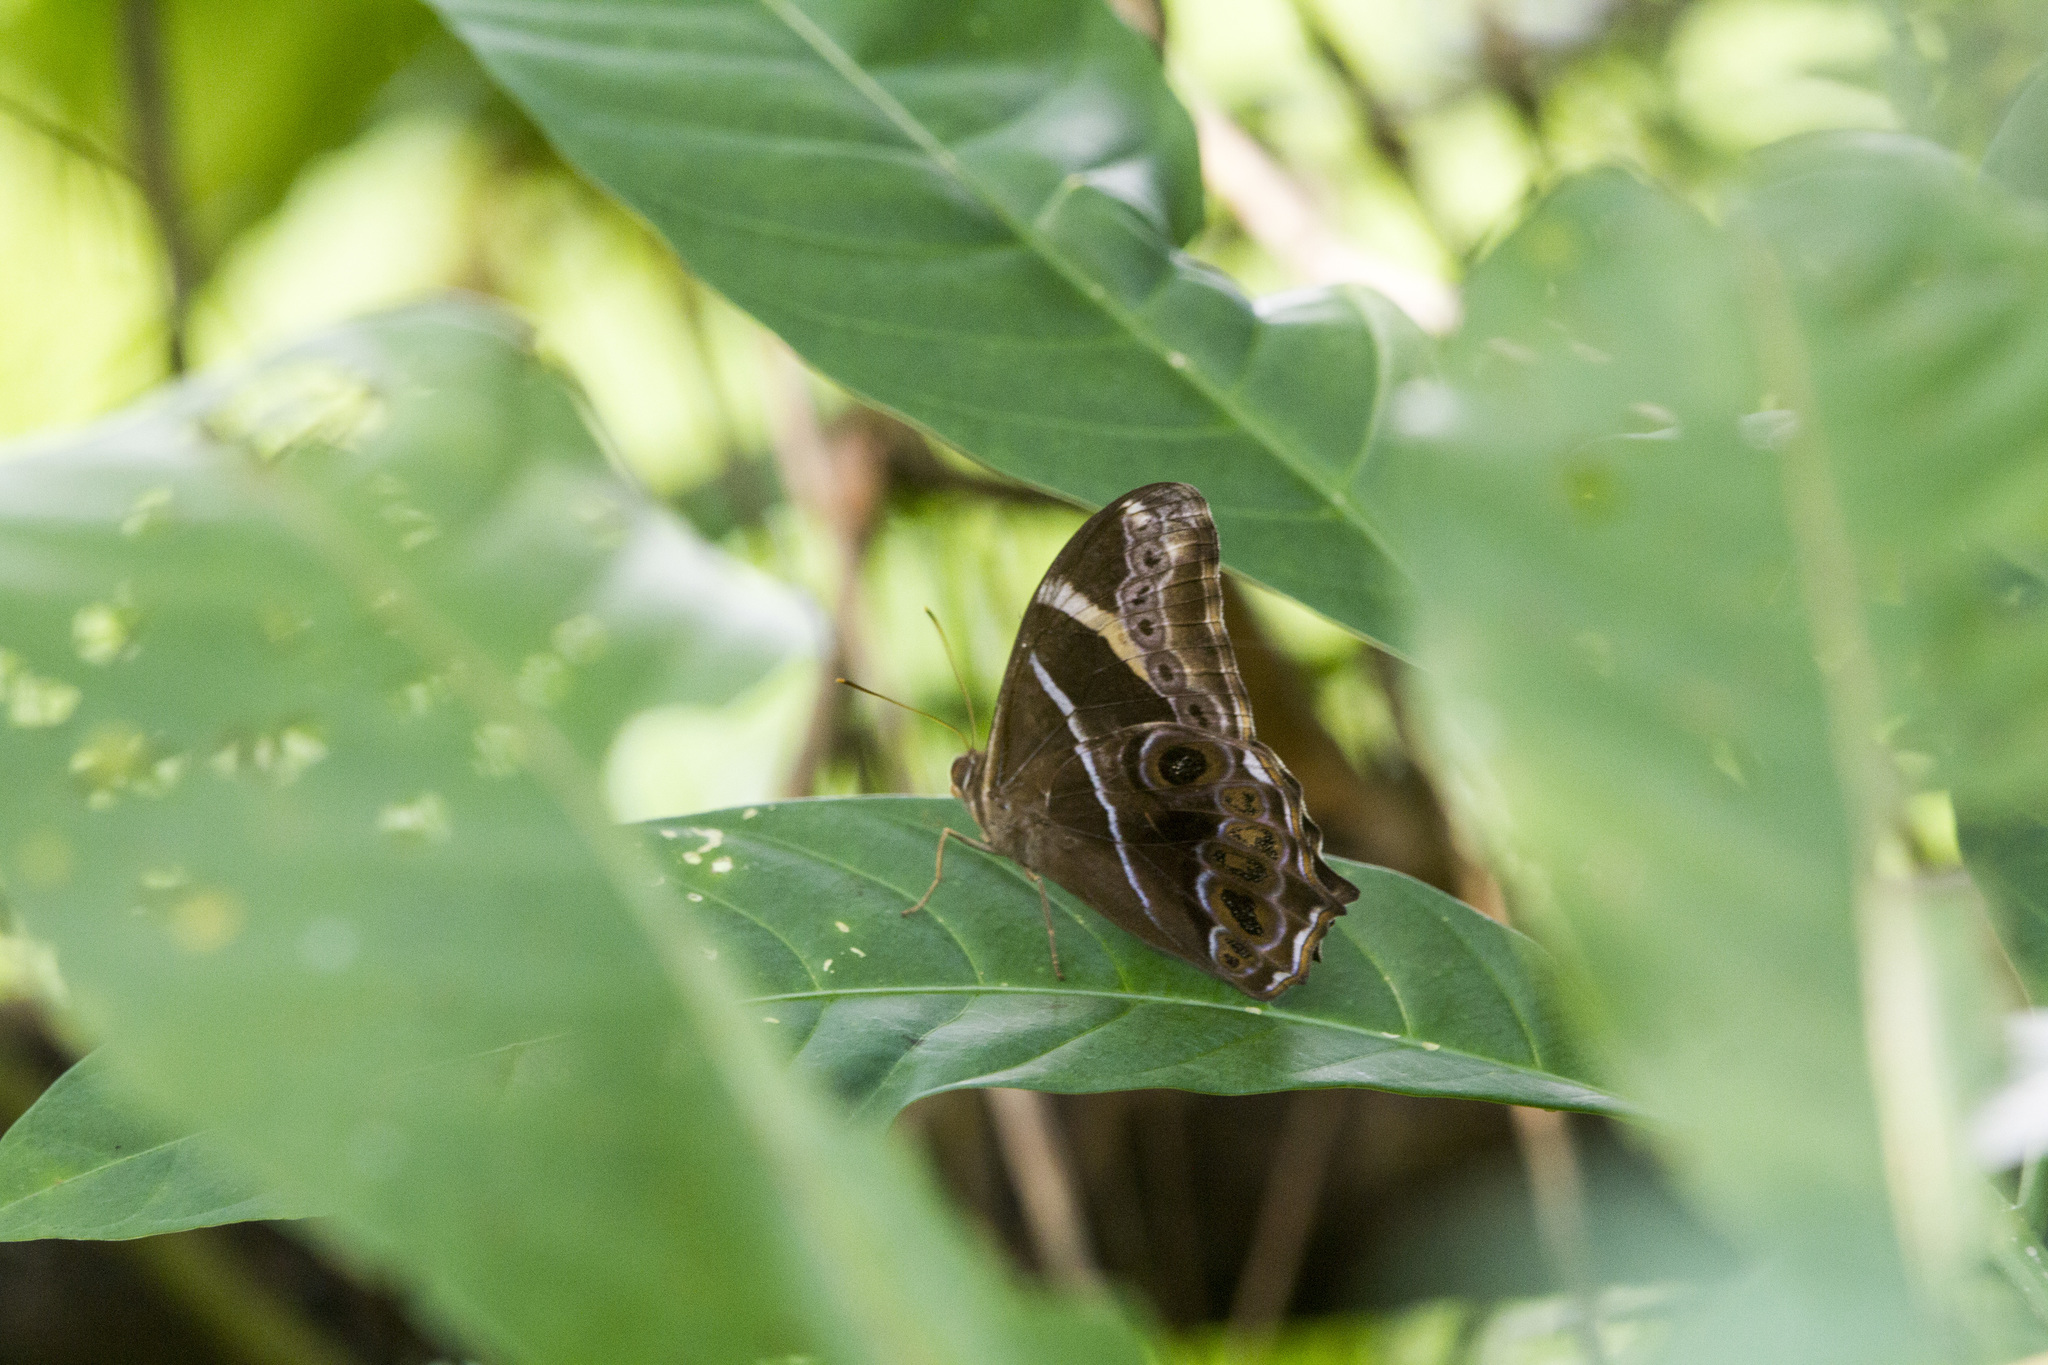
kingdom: Animalia
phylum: Arthropoda
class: Insecta
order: Lepidoptera
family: Nymphalidae
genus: Lethe
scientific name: Lethe europa
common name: Bamboo treebrown
